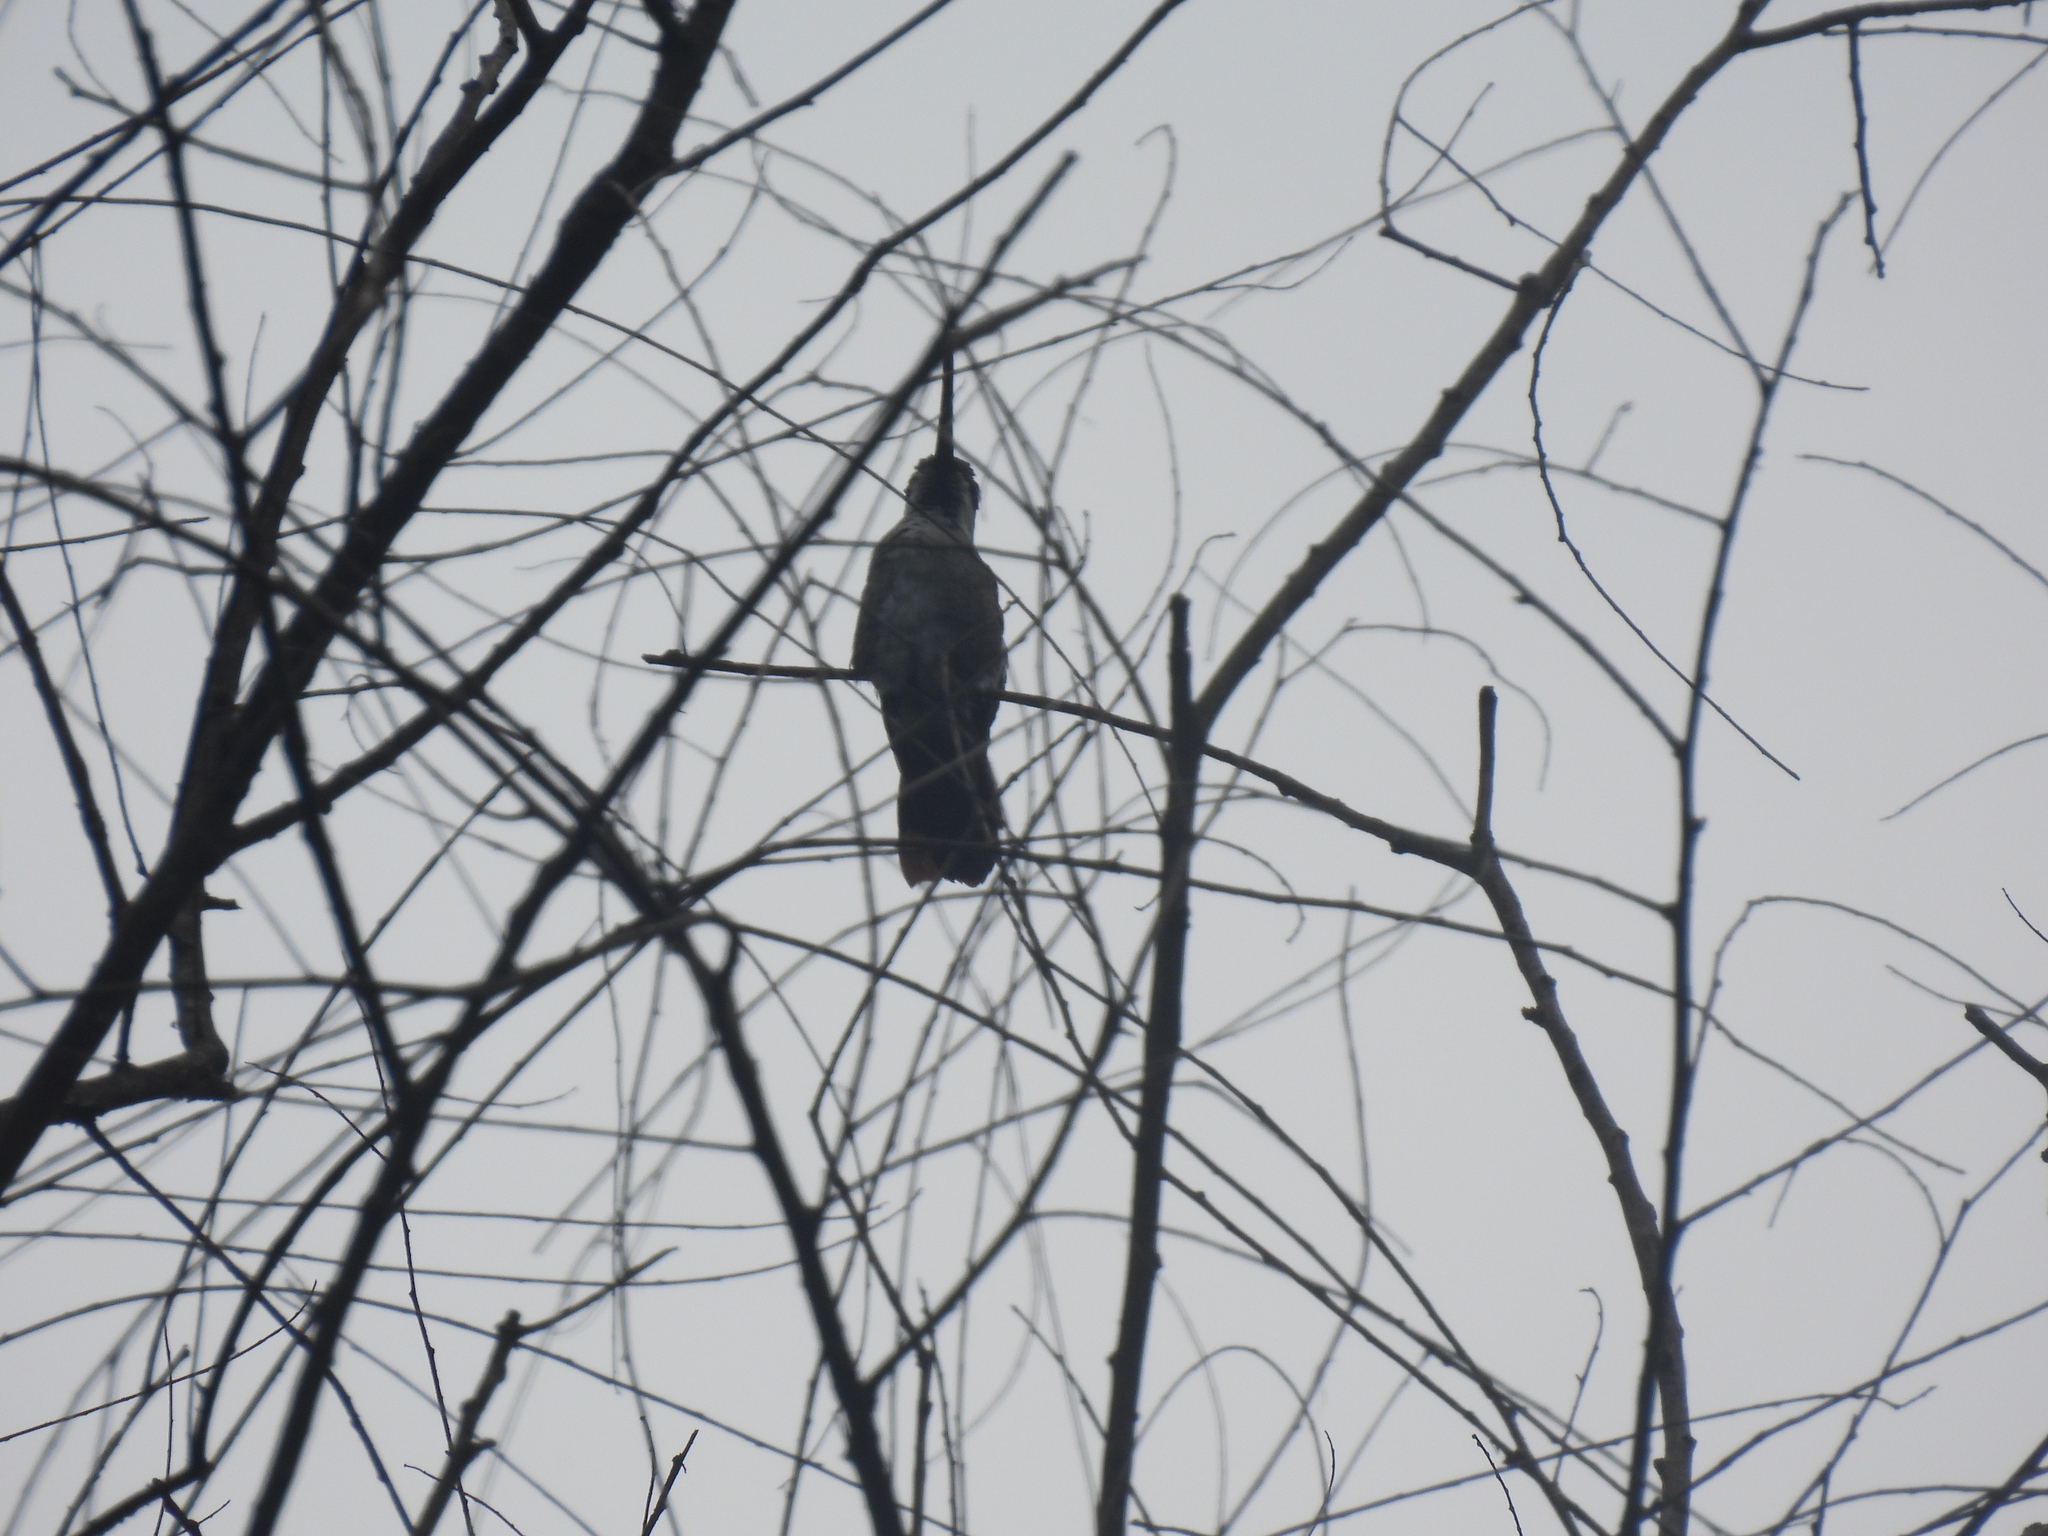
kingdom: Animalia
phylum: Chordata
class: Aves
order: Apodiformes
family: Trochilidae
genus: Heliomaster
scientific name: Heliomaster longirostris
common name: Long-billed starthroat
